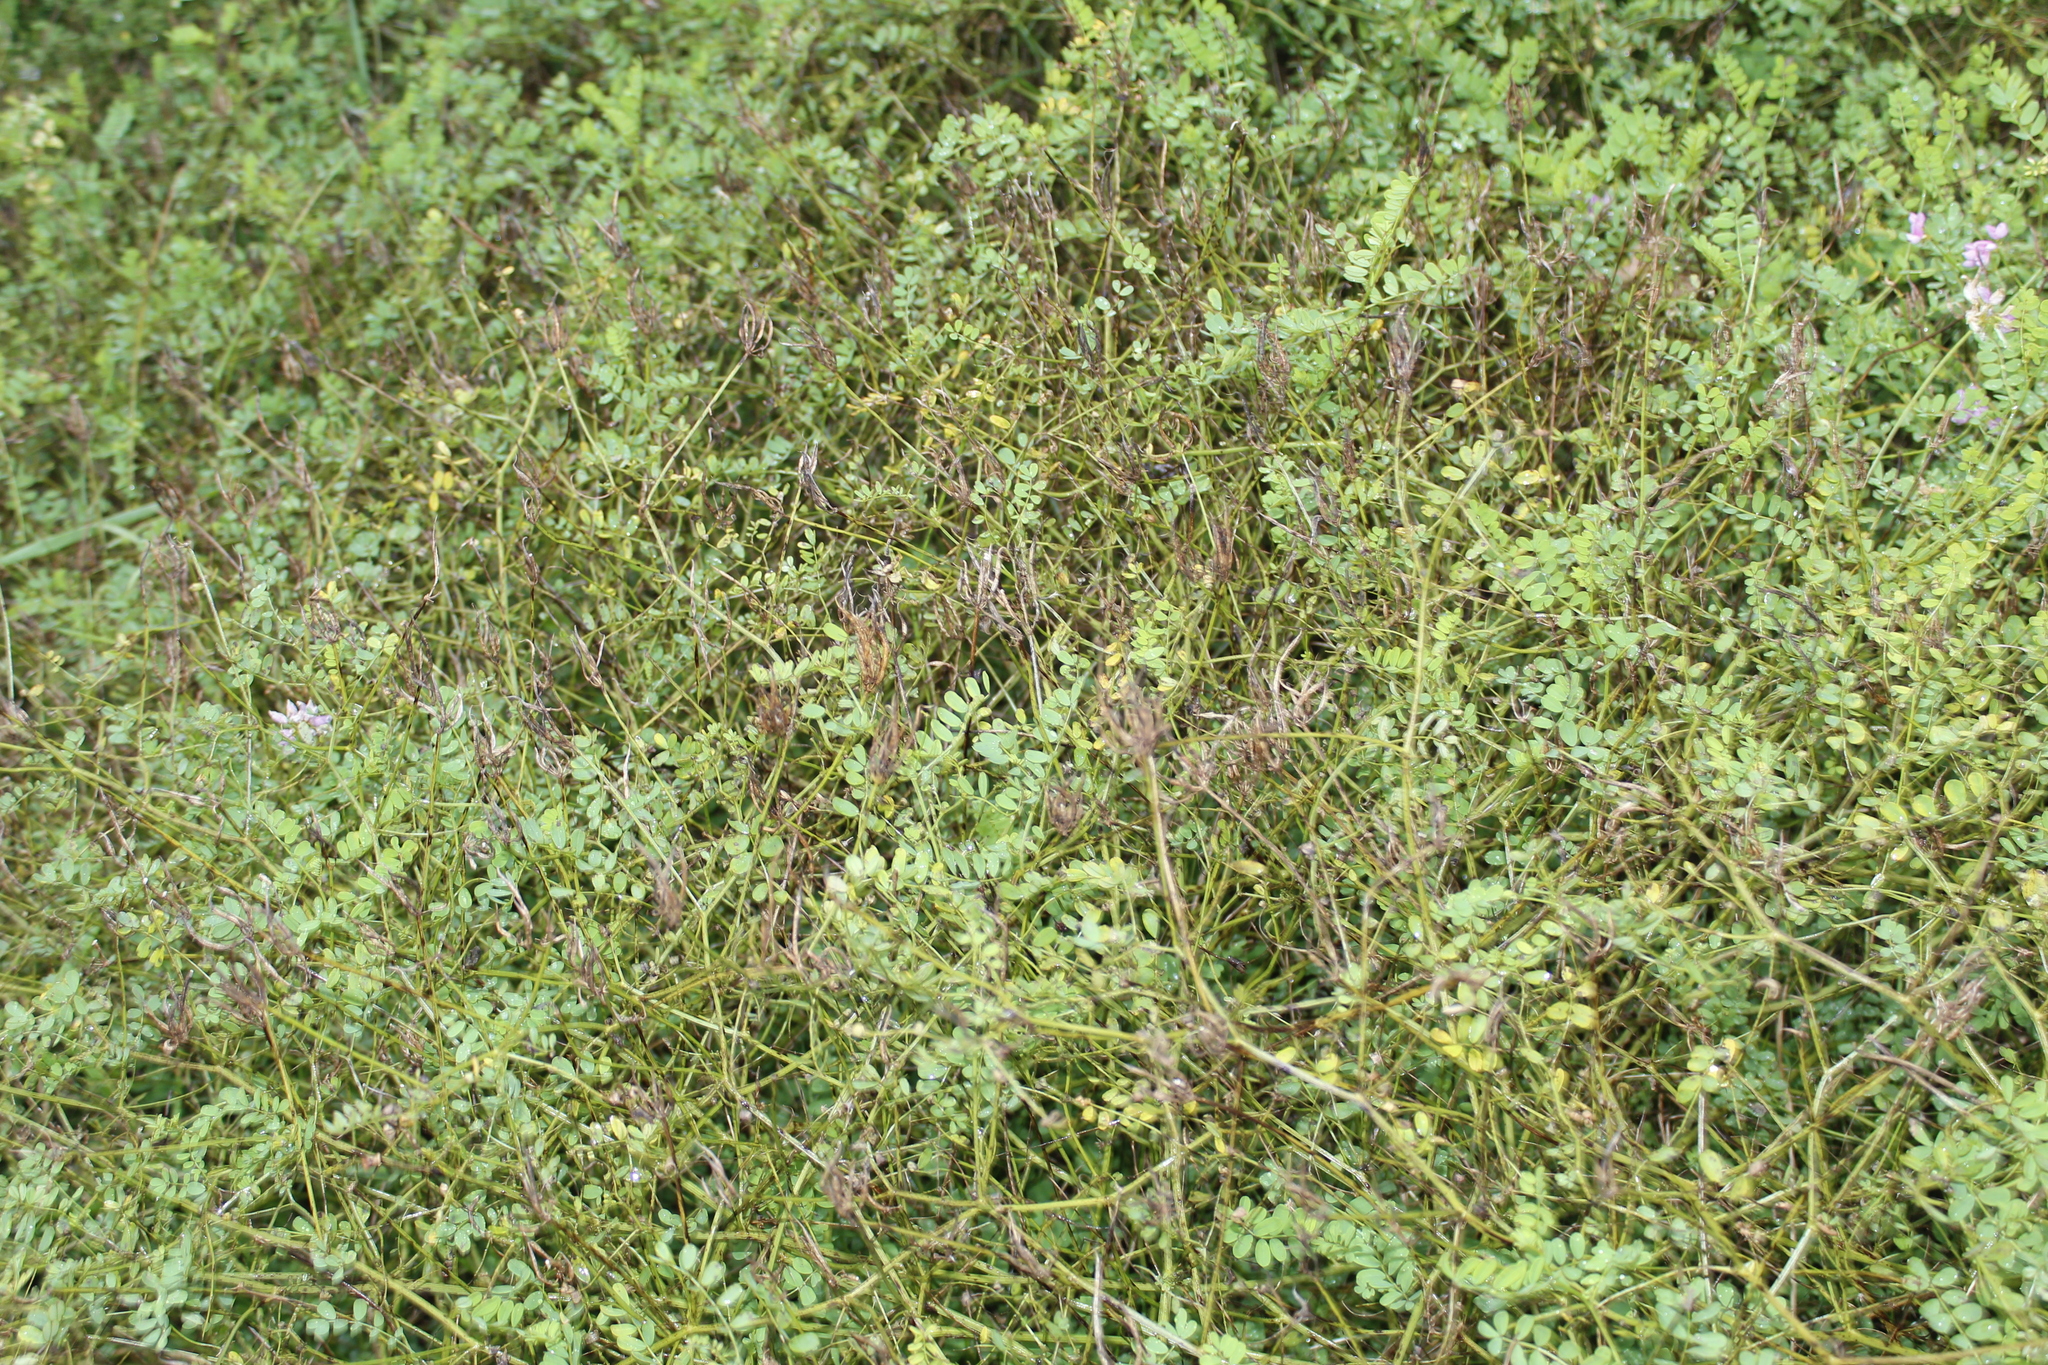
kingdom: Plantae
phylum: Tracheophyta
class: Magnoliopsida
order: Fabales
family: Fabaceae
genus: Coronilla
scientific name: Coronilla varia
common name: Crownvetch
